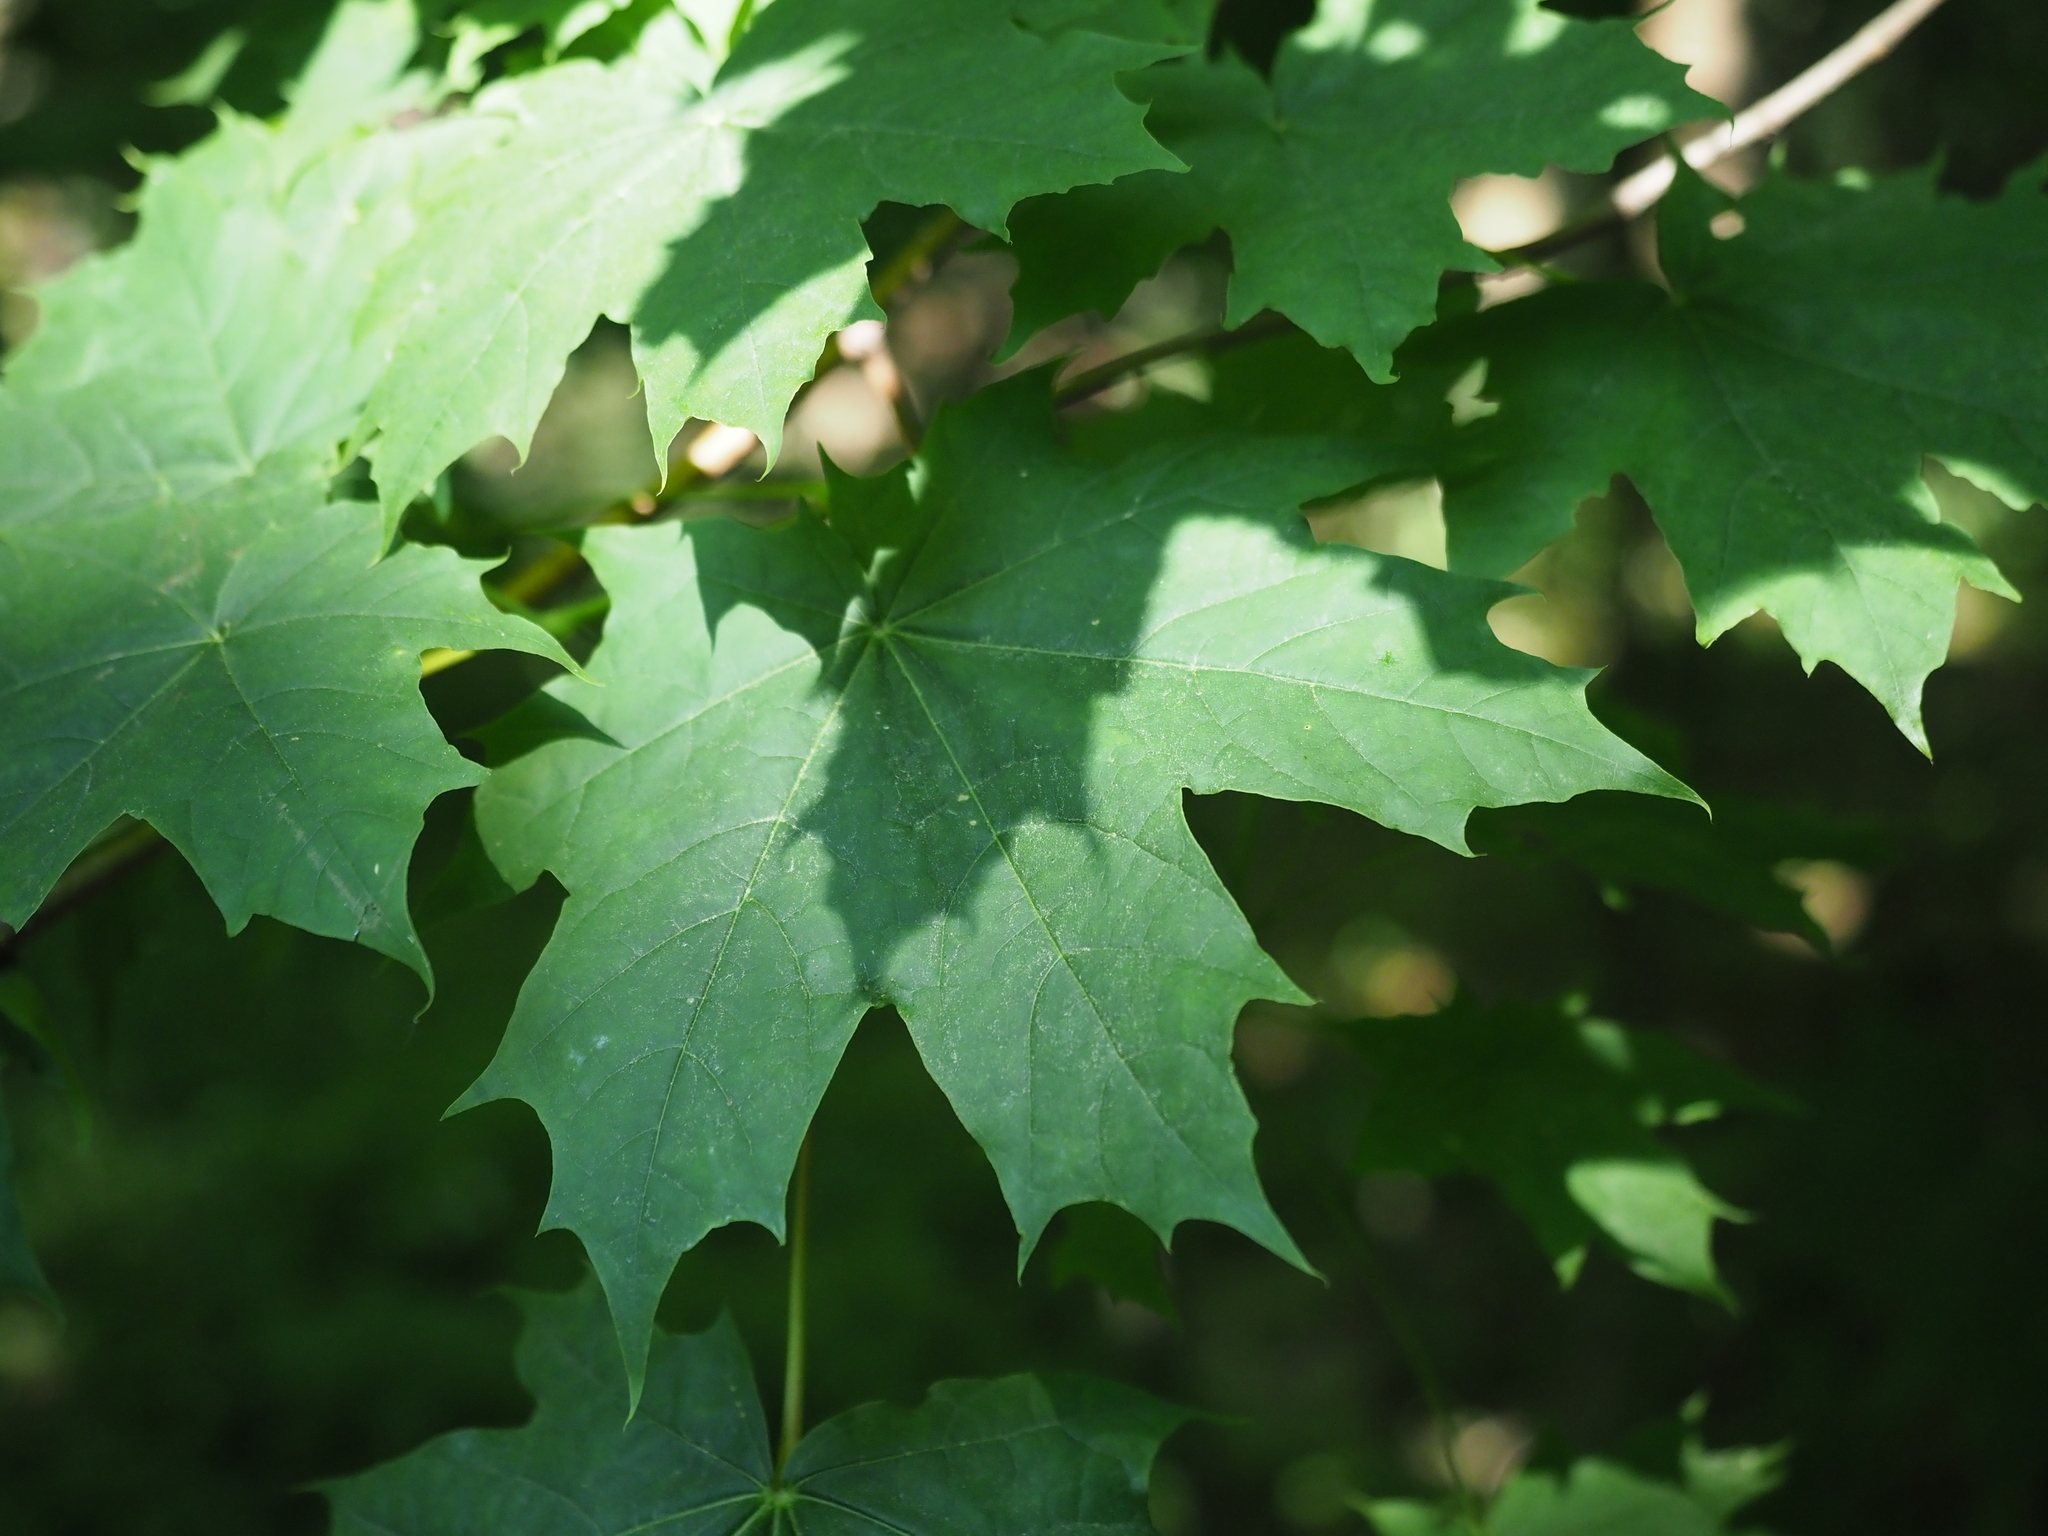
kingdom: Plantae
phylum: Tracheophyta
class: Magnoliopsida
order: Sapindales
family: Sapindaceae
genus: Acer
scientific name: Acer platanoides
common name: Norway maple
